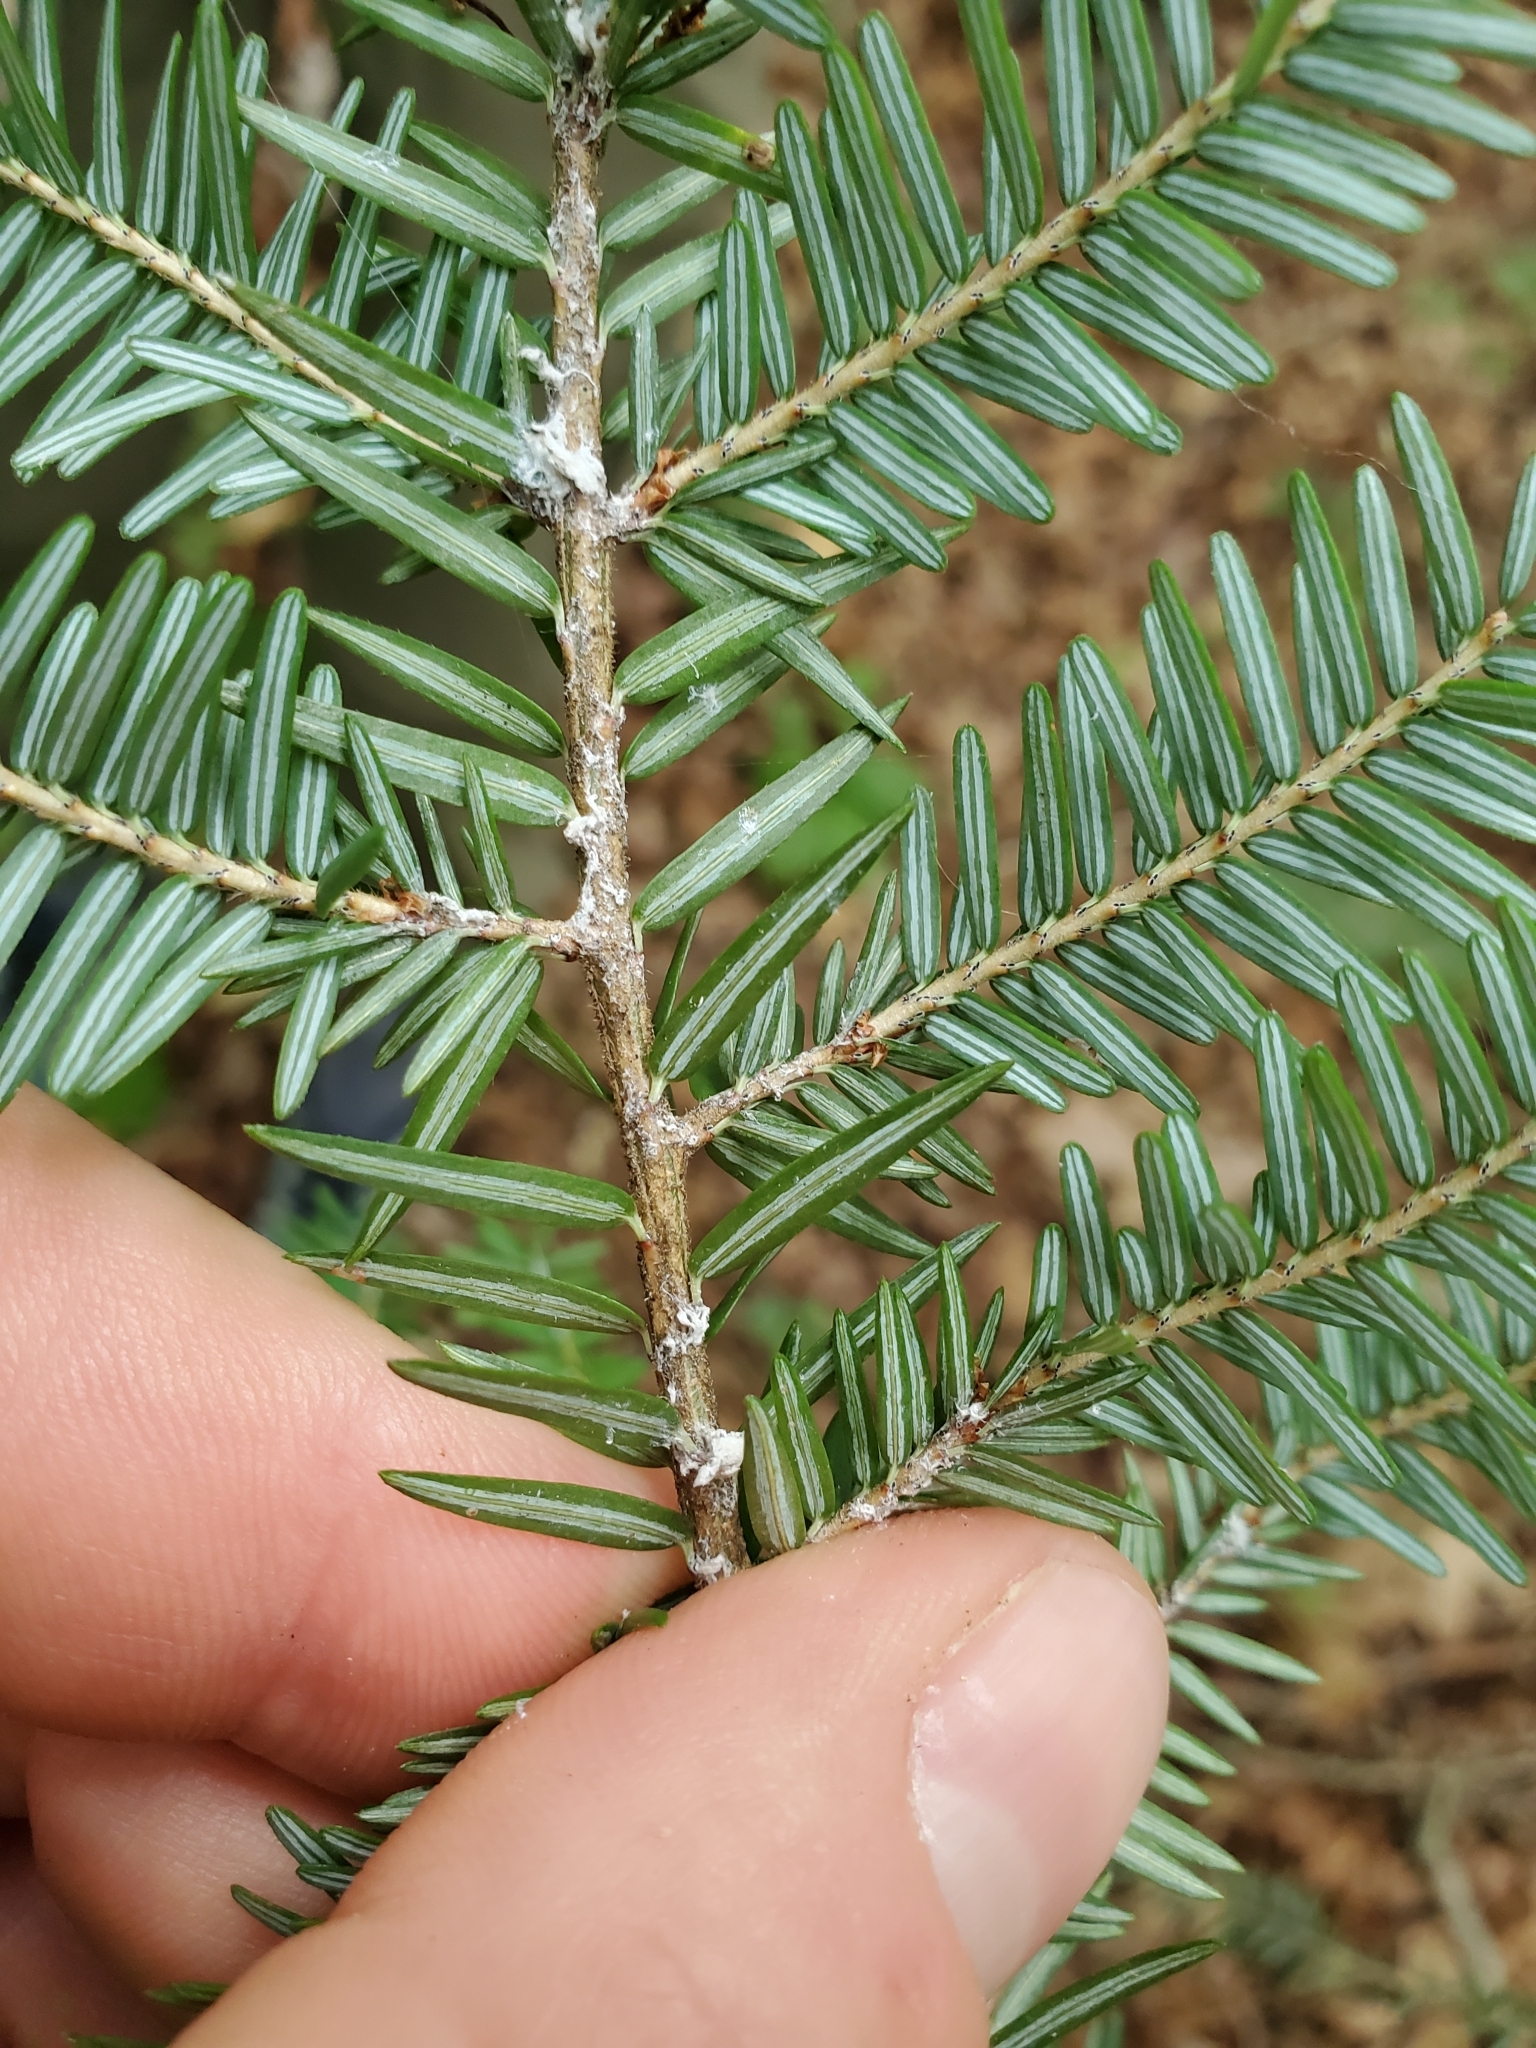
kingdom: Animalia
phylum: Arthropoda
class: Insecta
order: Hemiptera
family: Adelgidae
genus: Adelges
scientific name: Adelges tsugae
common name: Hemlock woolly adelgid
